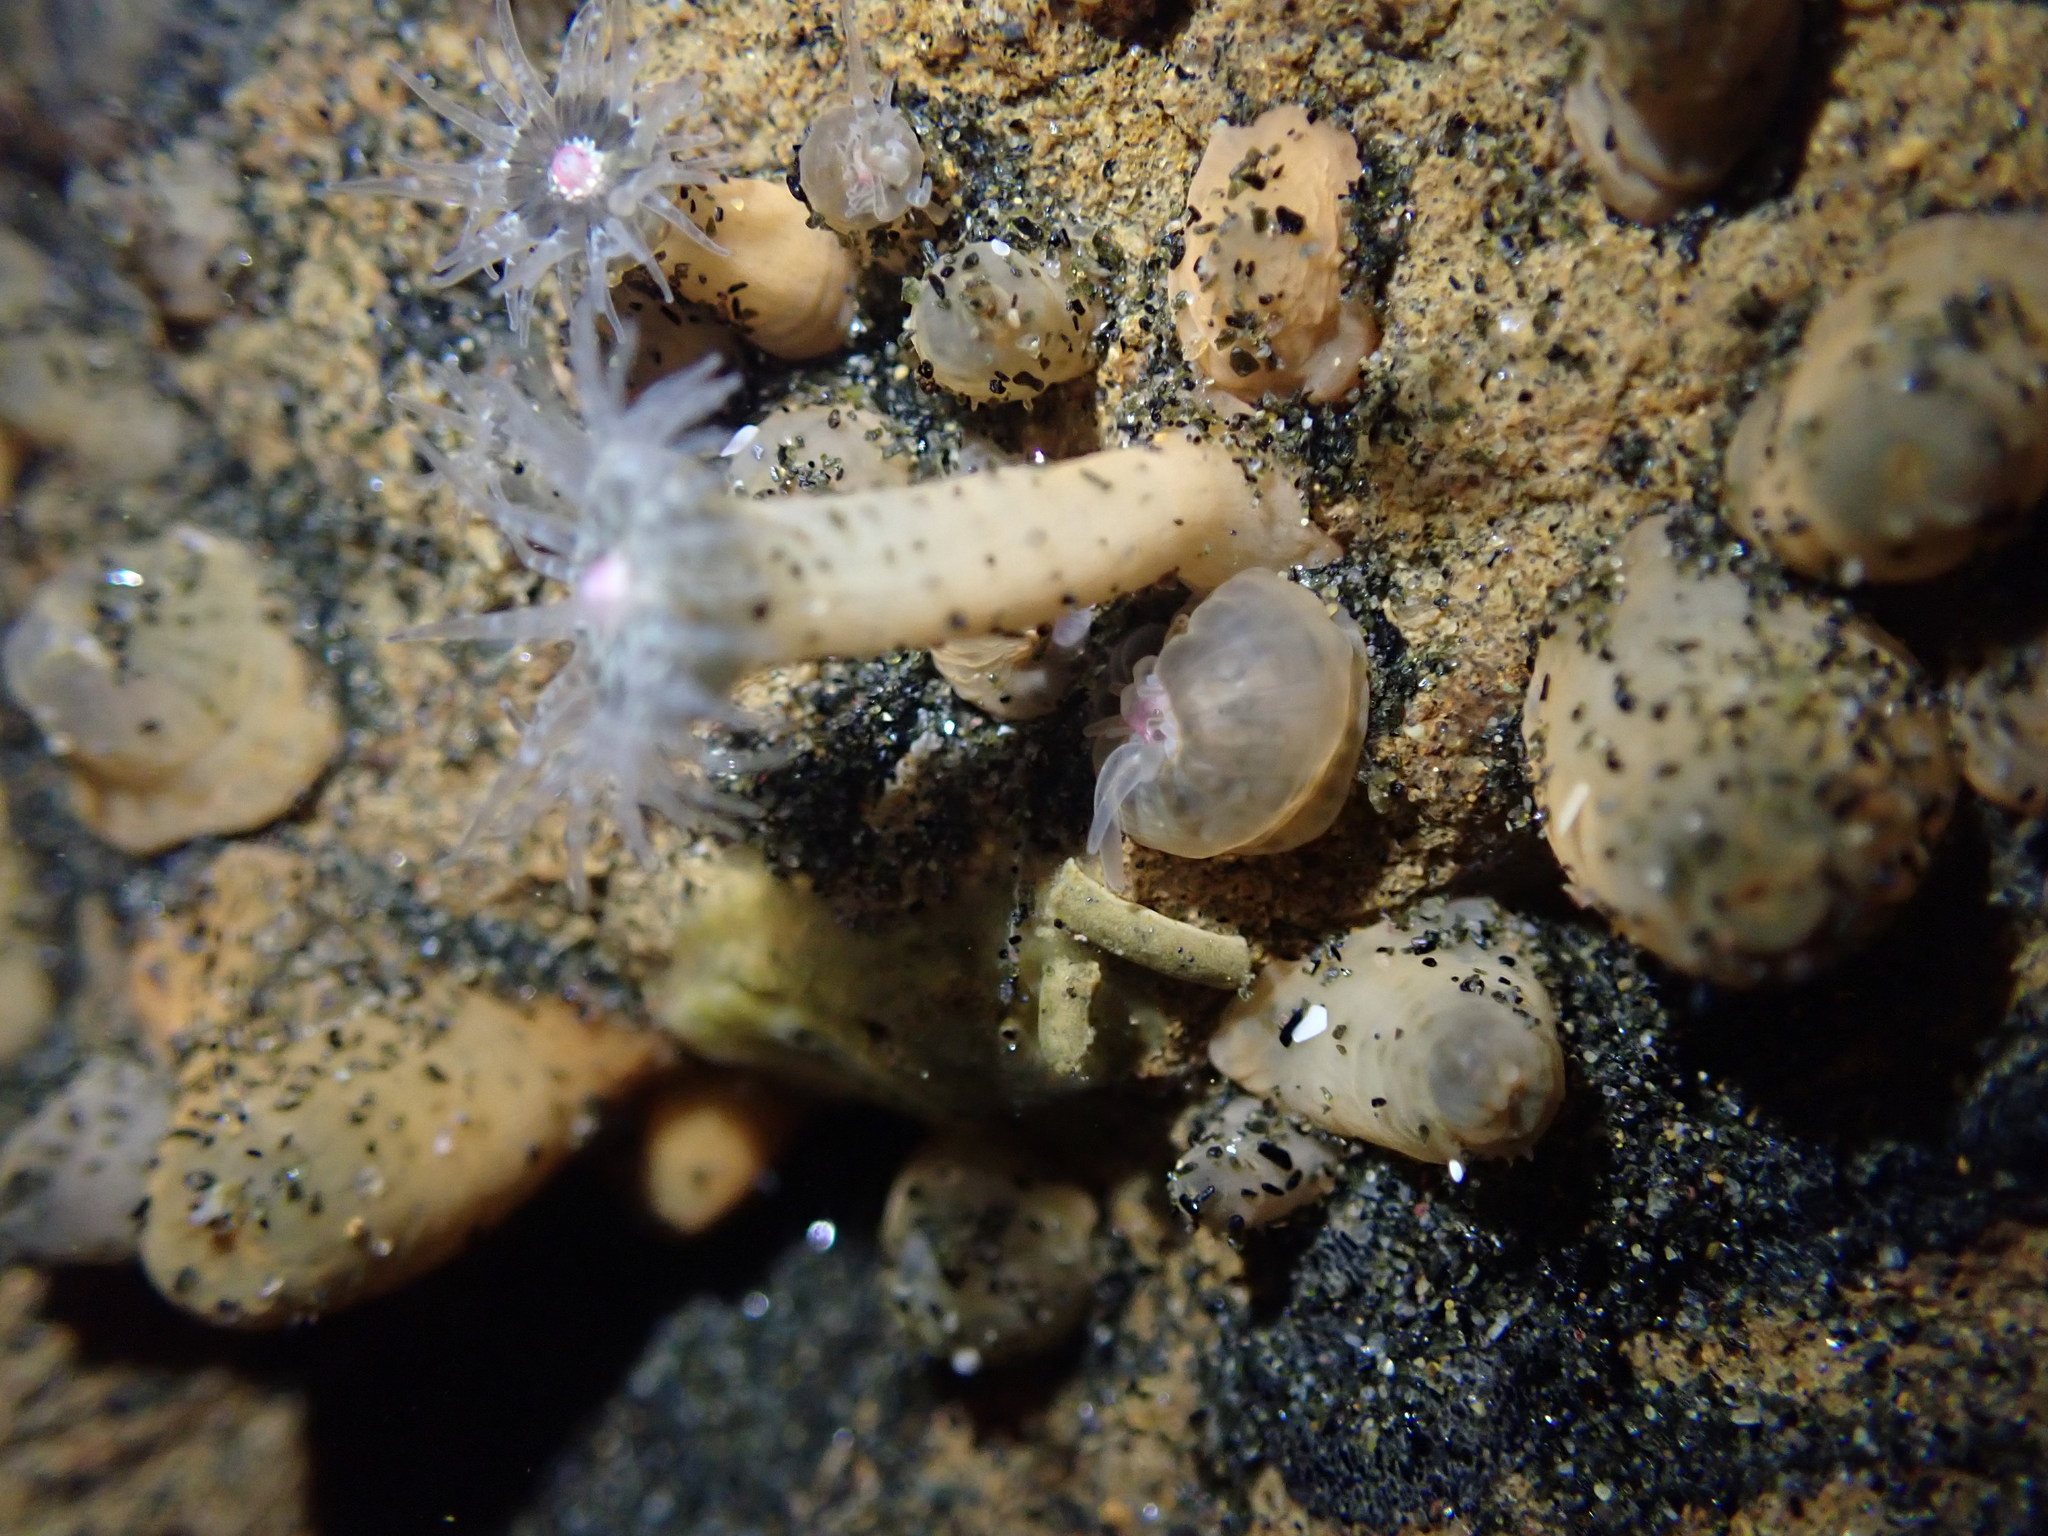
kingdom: Animalia
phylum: Cnidaria
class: Anthozoa
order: Actiniaria
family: Actiniidae
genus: Anthopleura
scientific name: Anthopleura minima
